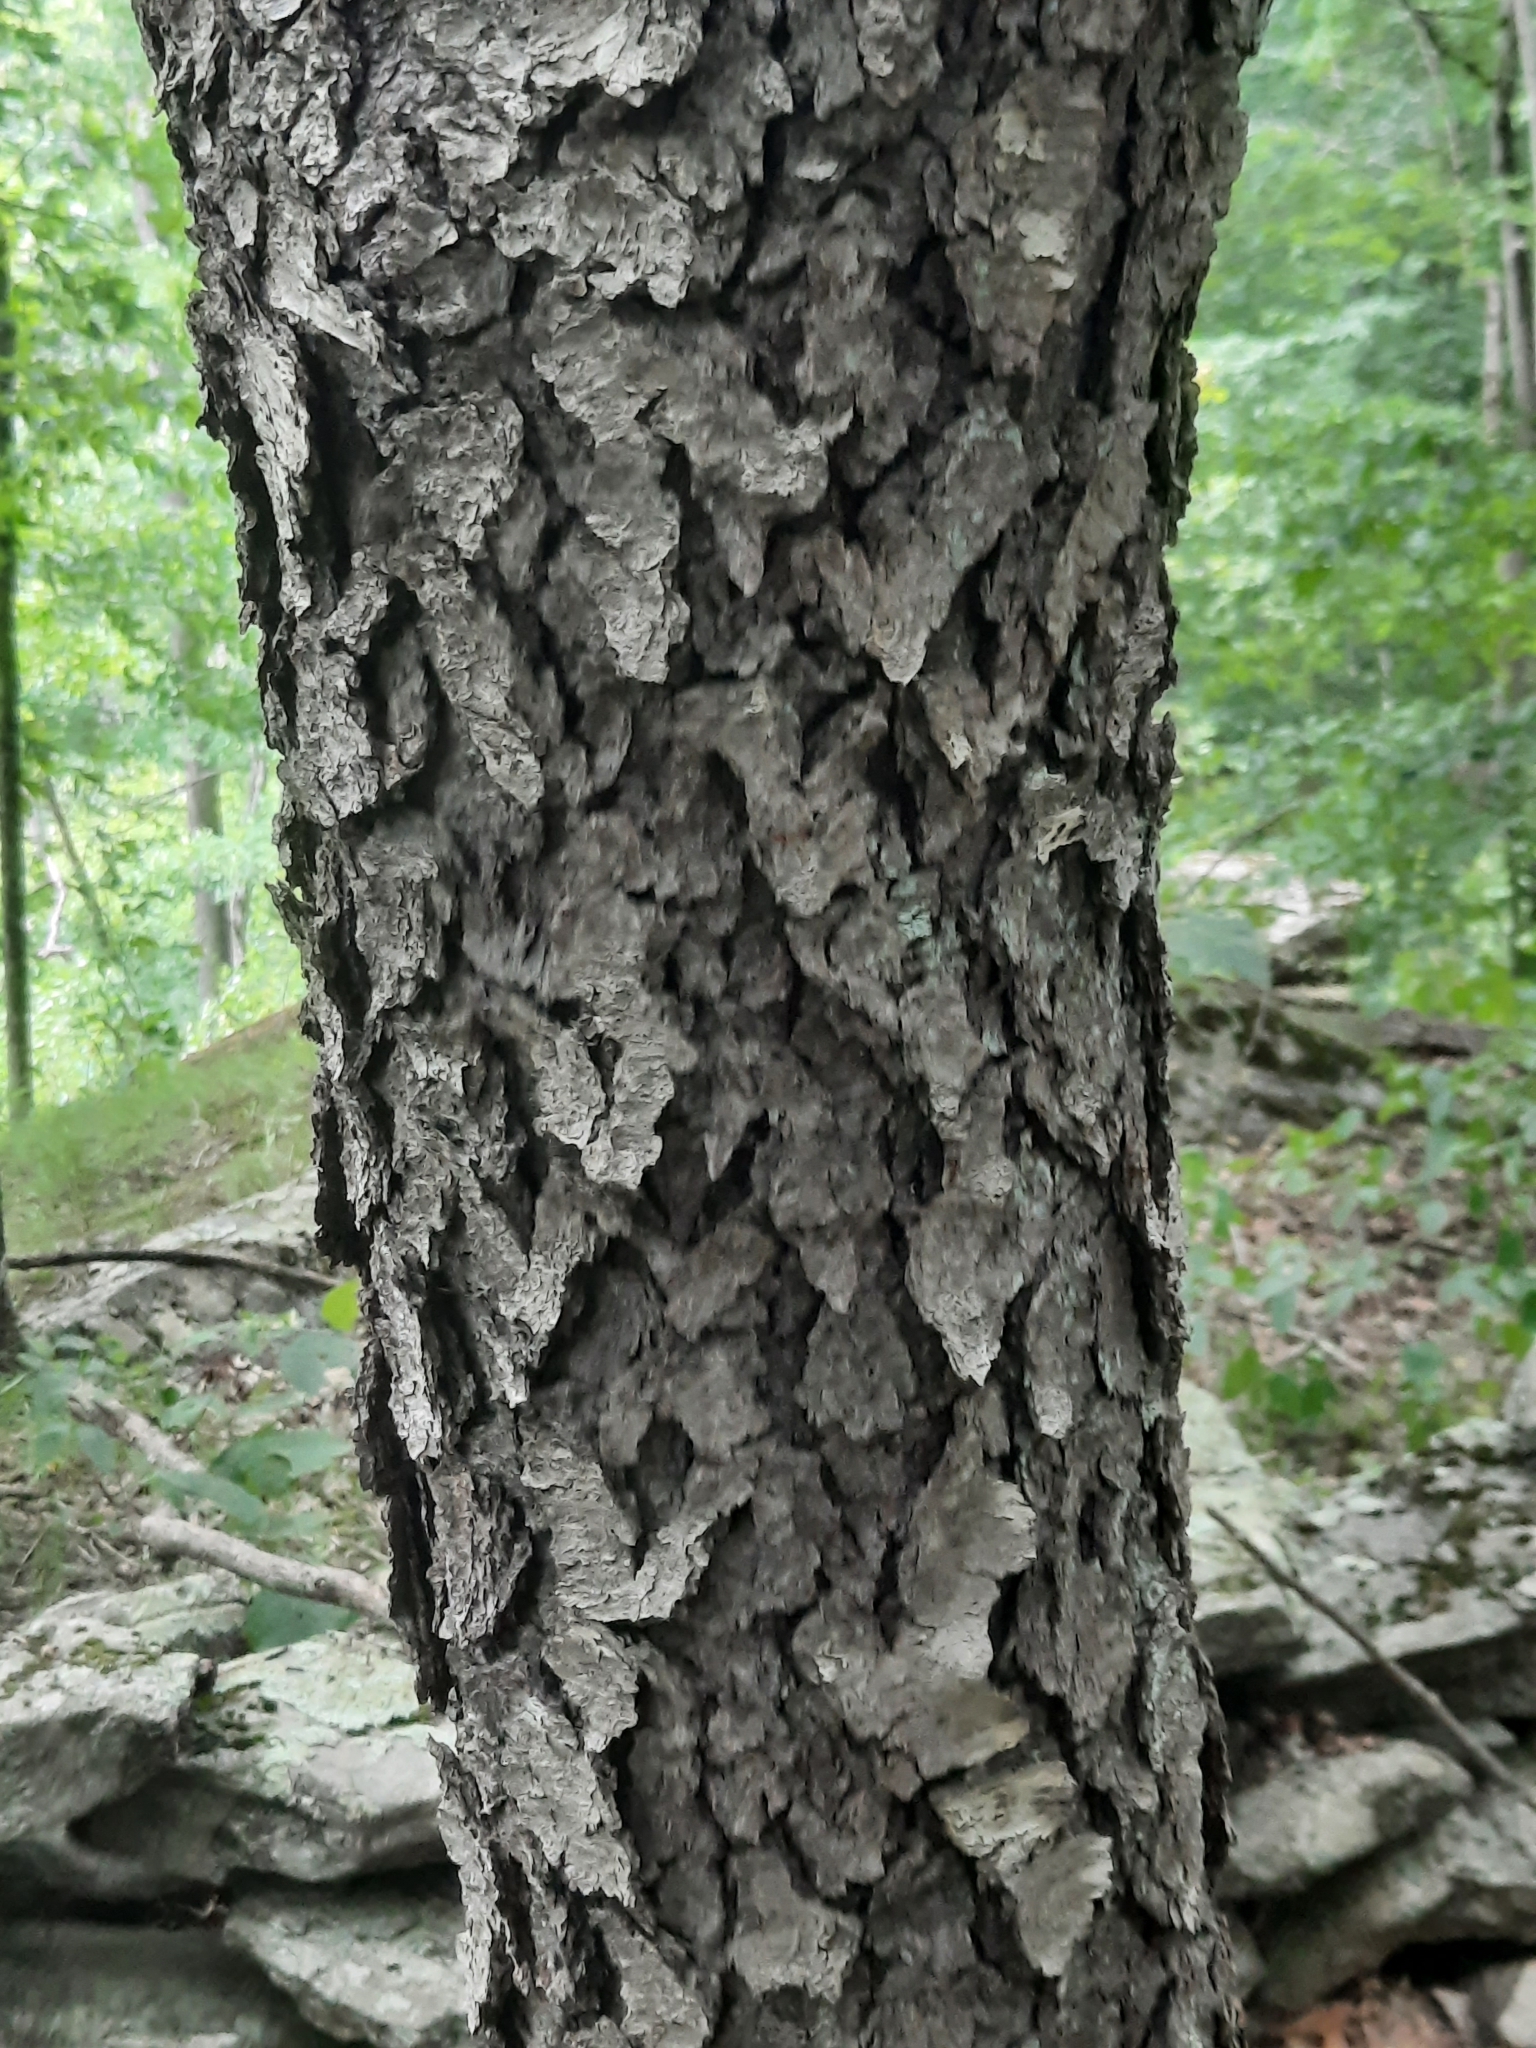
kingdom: Plantae
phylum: Tracheophyta
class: Magnoliopsida
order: Rosales
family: Rosaceae
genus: Prunus
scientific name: Prunus serotina
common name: Black cherry
